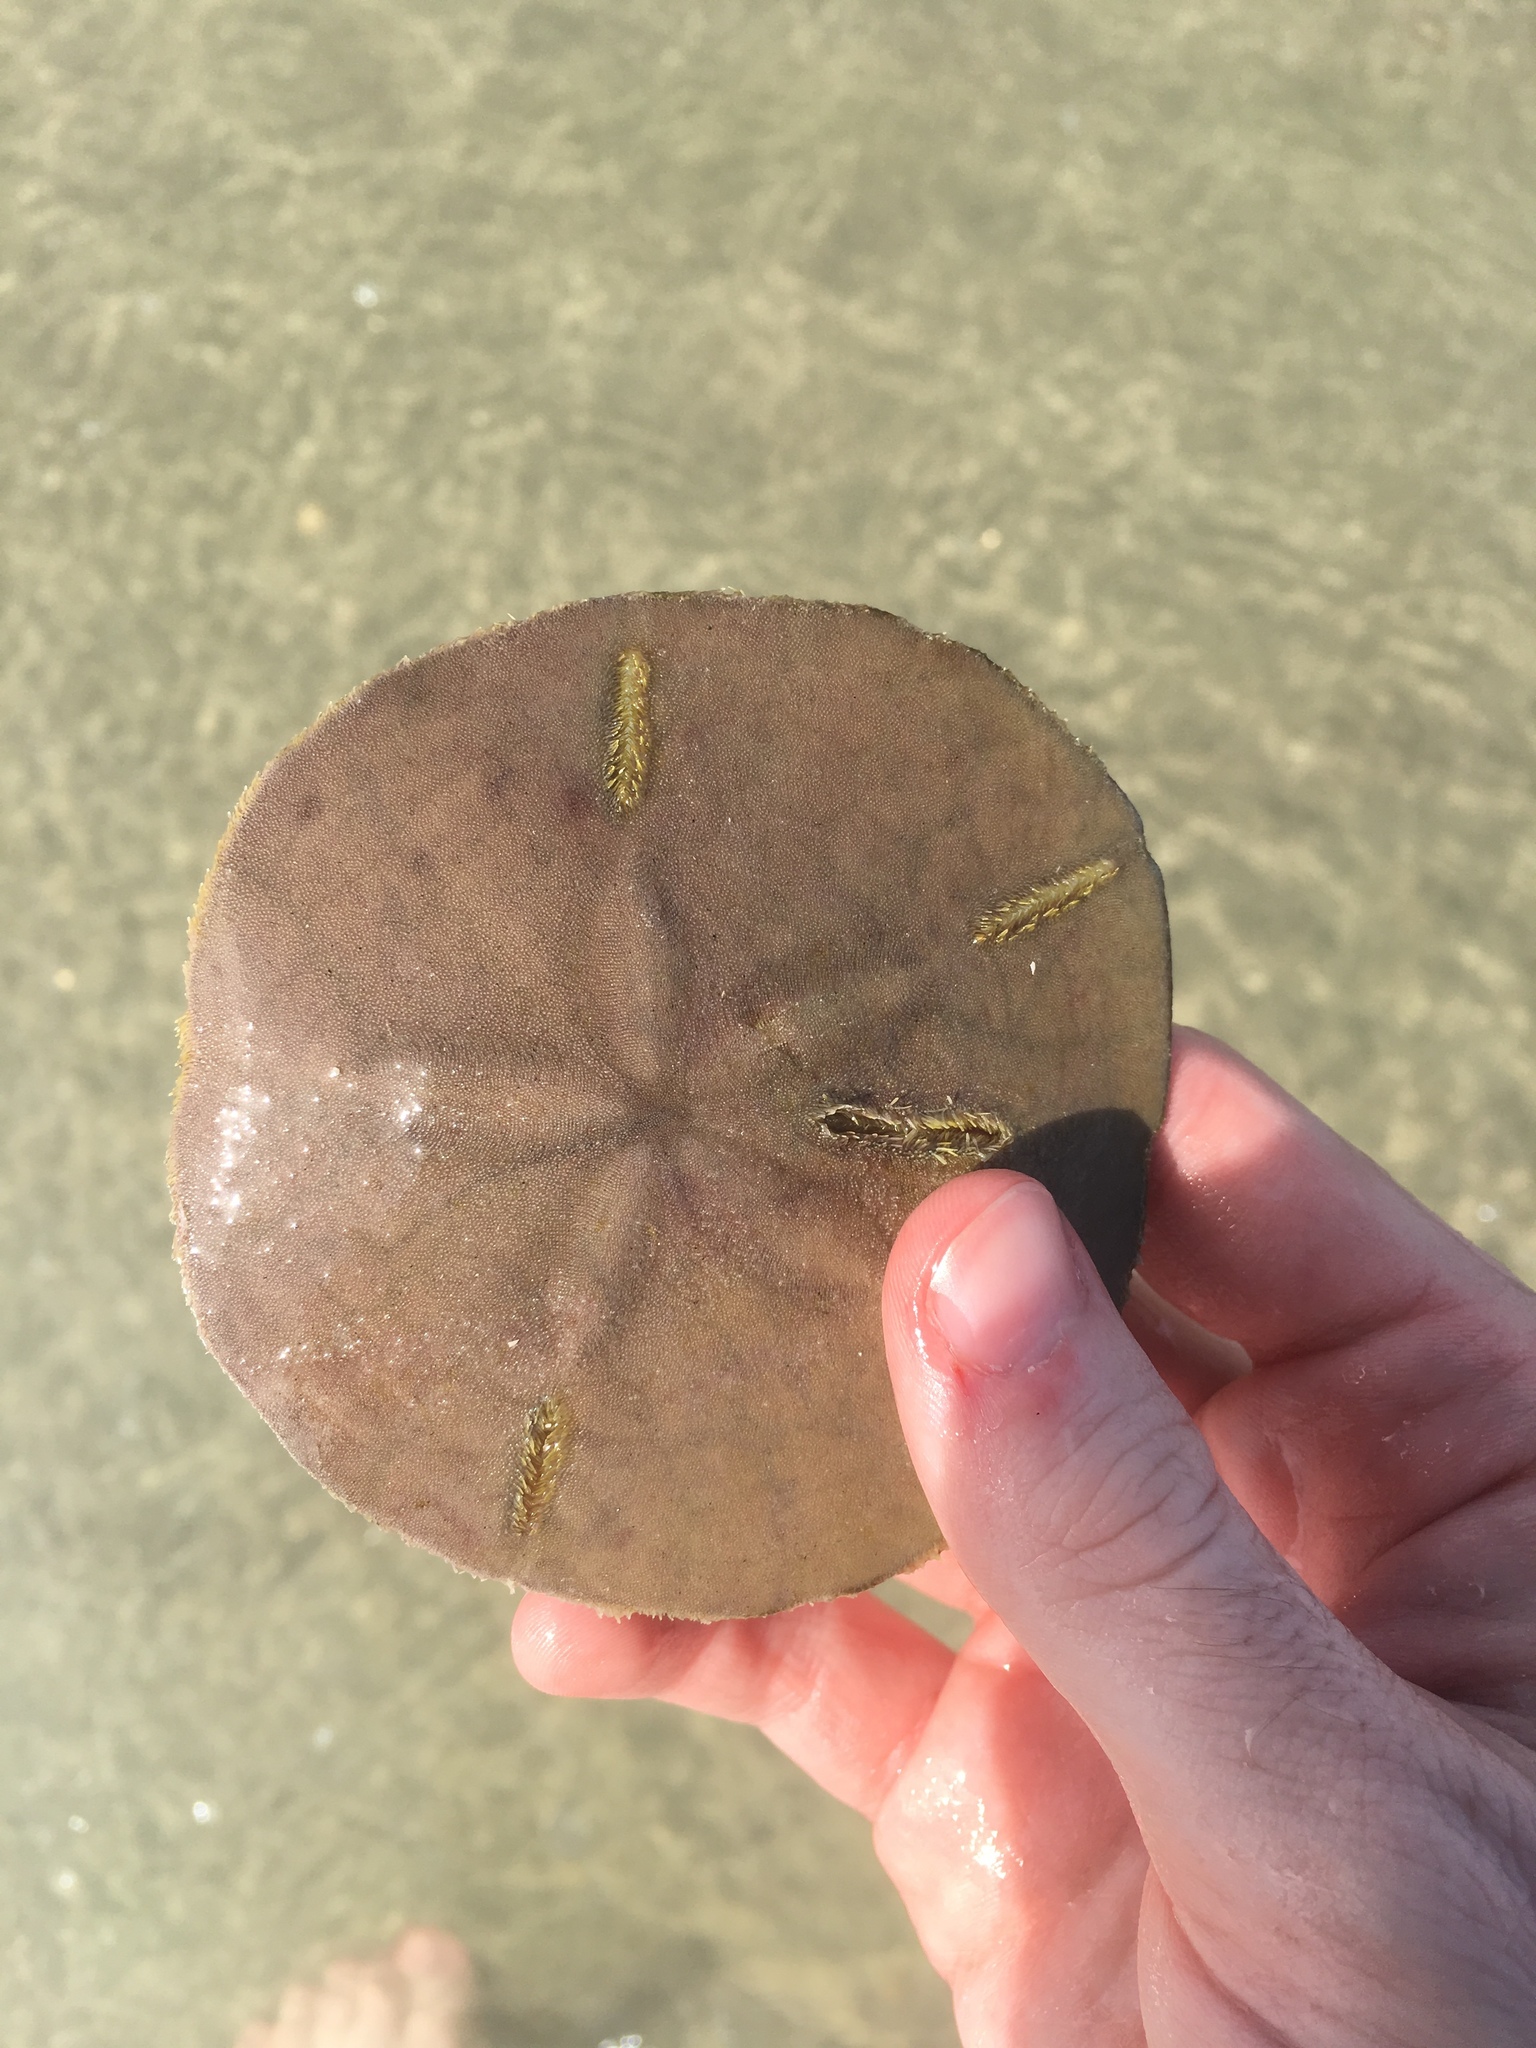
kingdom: Animalia
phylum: Echinodermata
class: Echinoidea
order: Echinolampadacea
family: Mellitidae
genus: Mellita
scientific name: Mellita isometra
